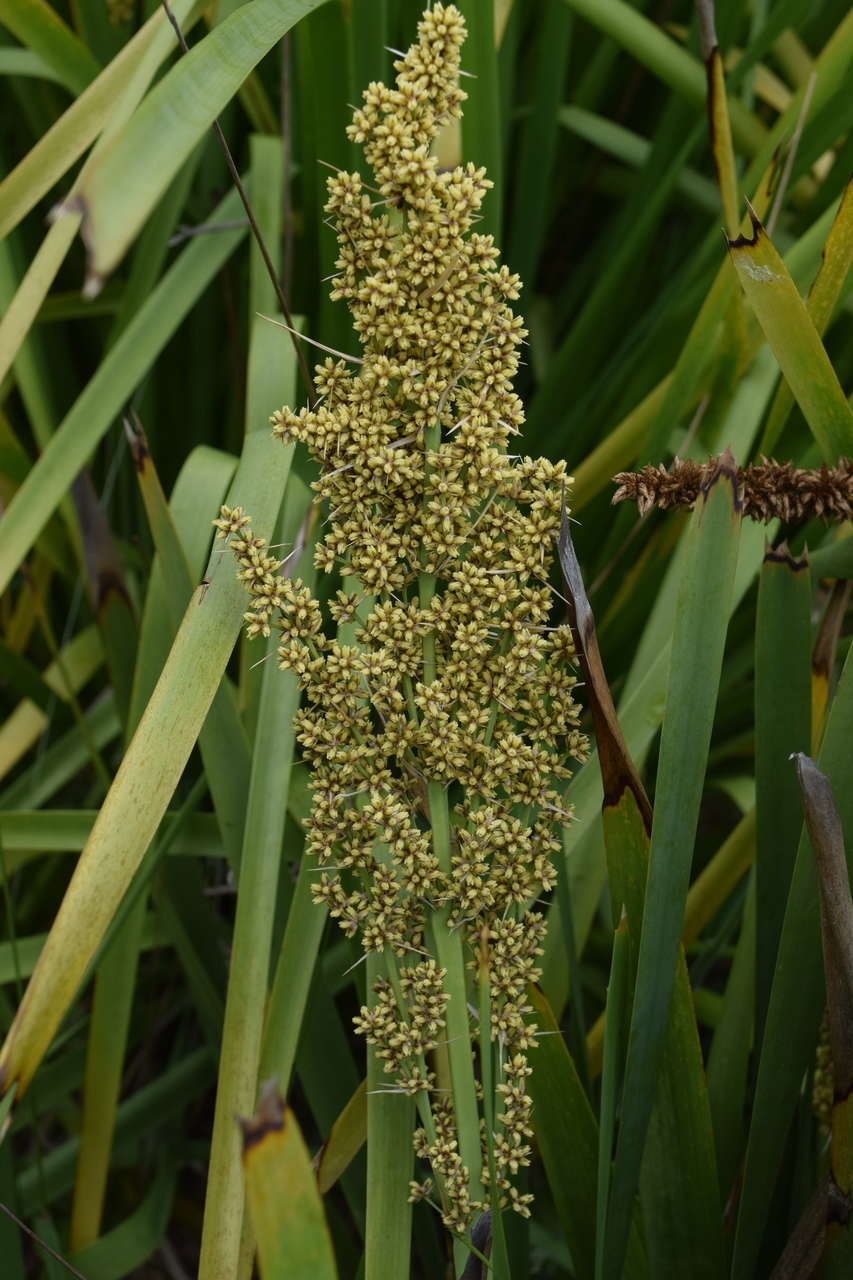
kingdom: Plantae
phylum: Tracheophyta
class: Liliopsida
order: Asparagales
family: Asparagaceae
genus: Lomandra
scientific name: Lomandra longifolia
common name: Longleaf mat-rush
